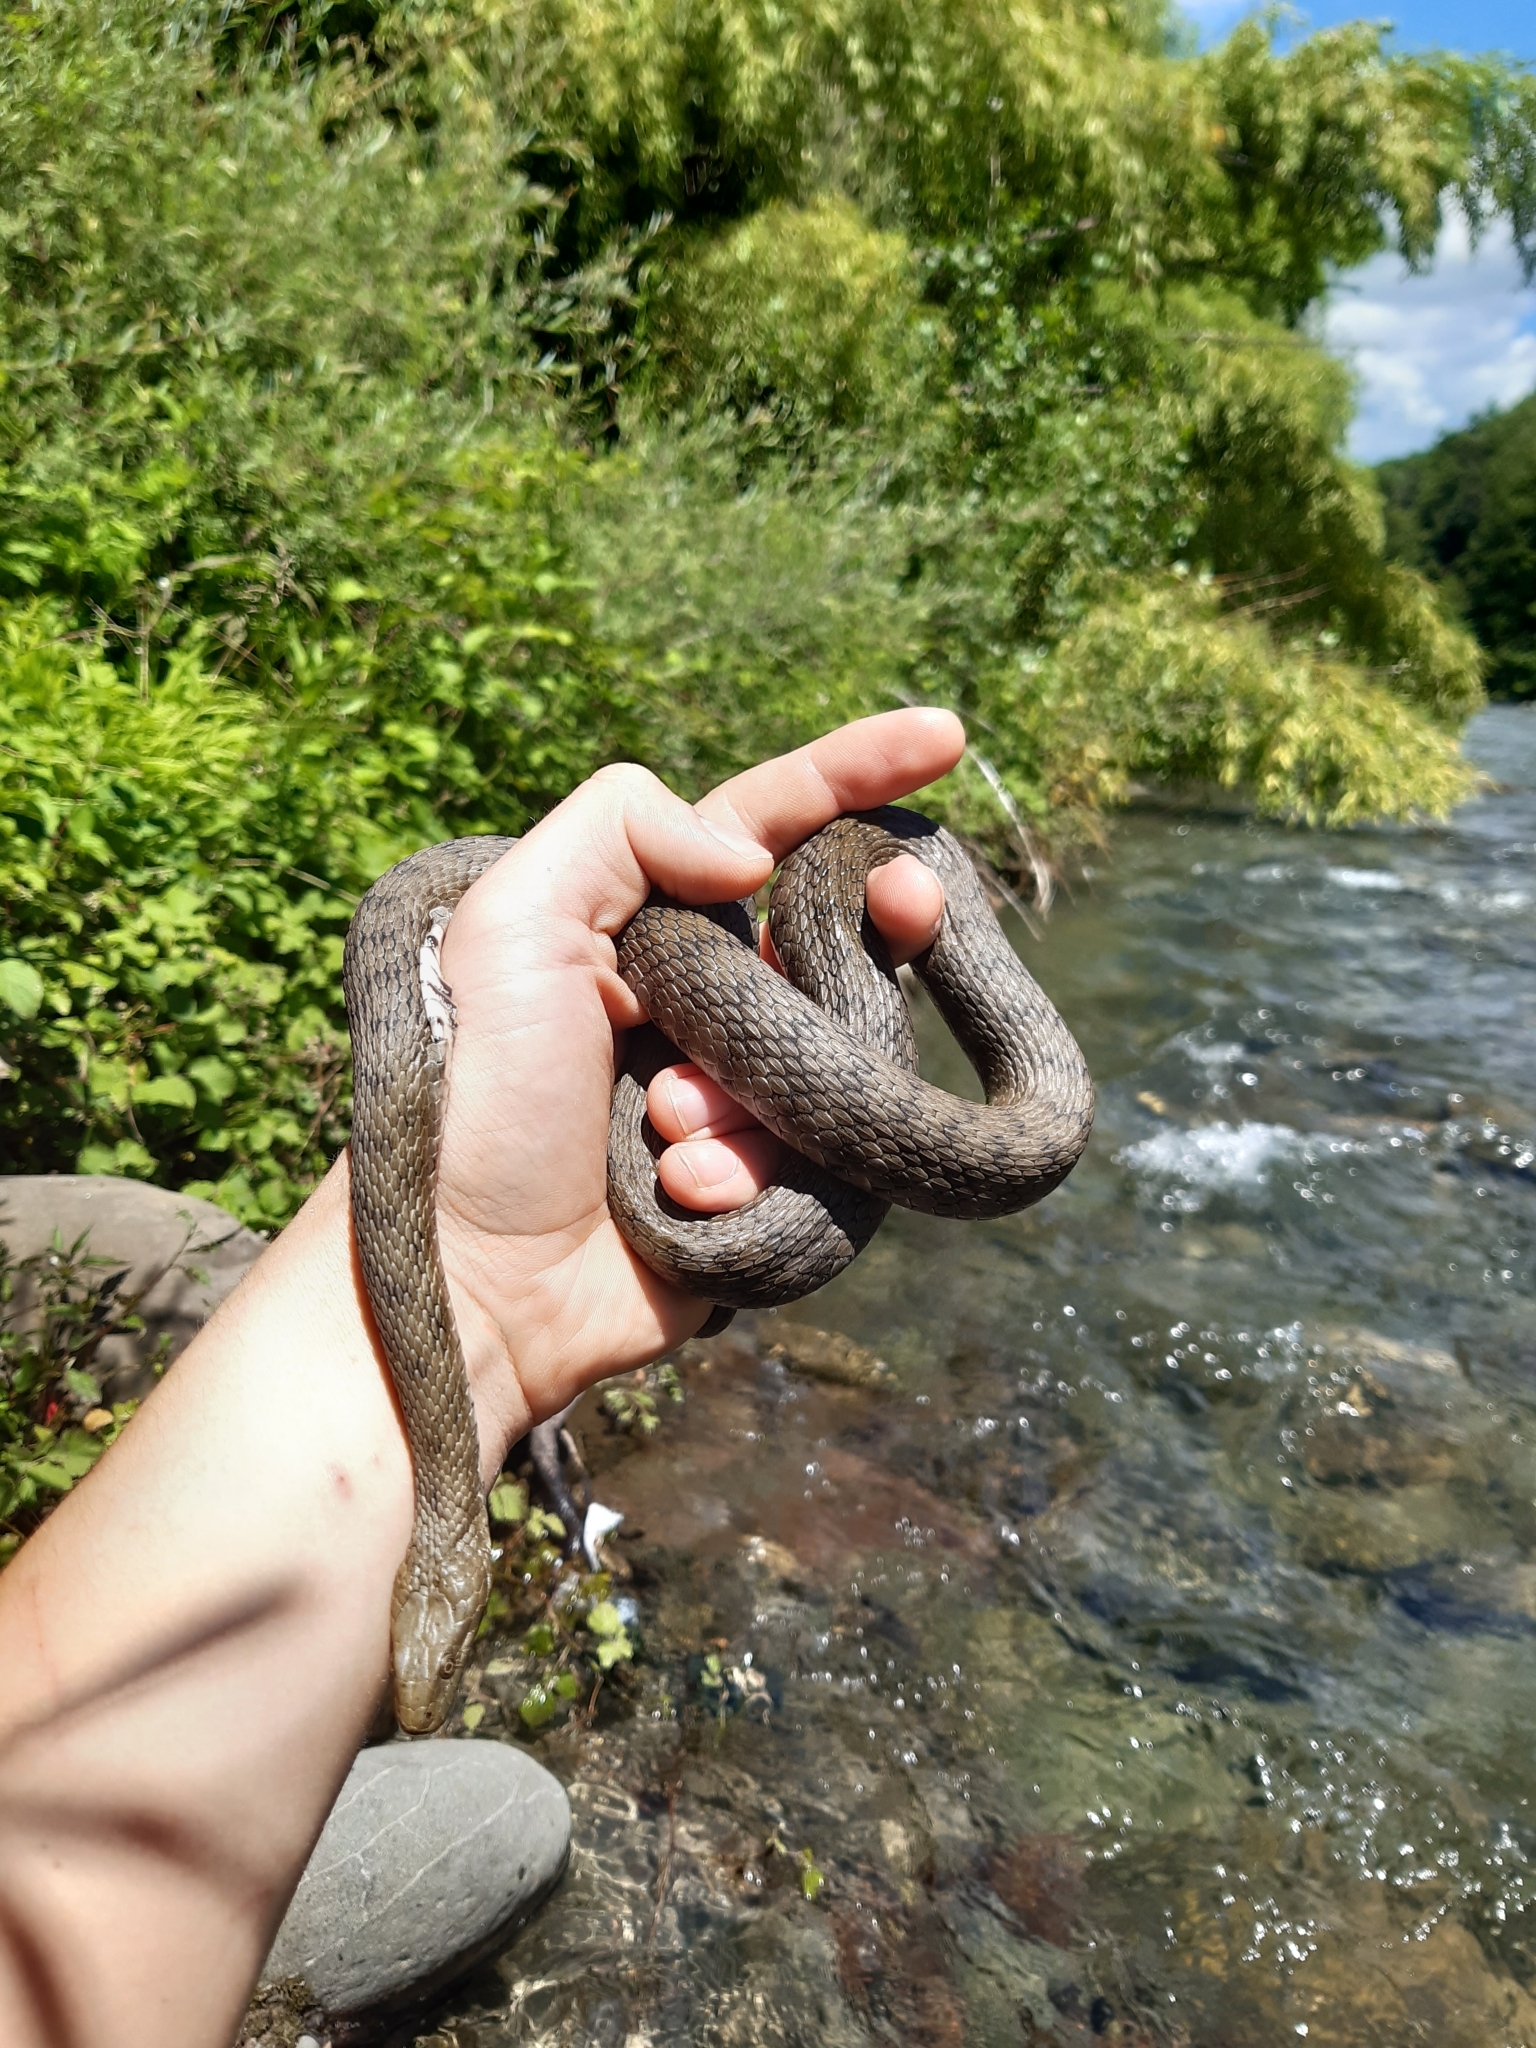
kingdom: Animalia
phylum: Chordata
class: Squamata
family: Colubridae
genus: Natrix
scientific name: Natrix tessellata
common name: Dice snake
